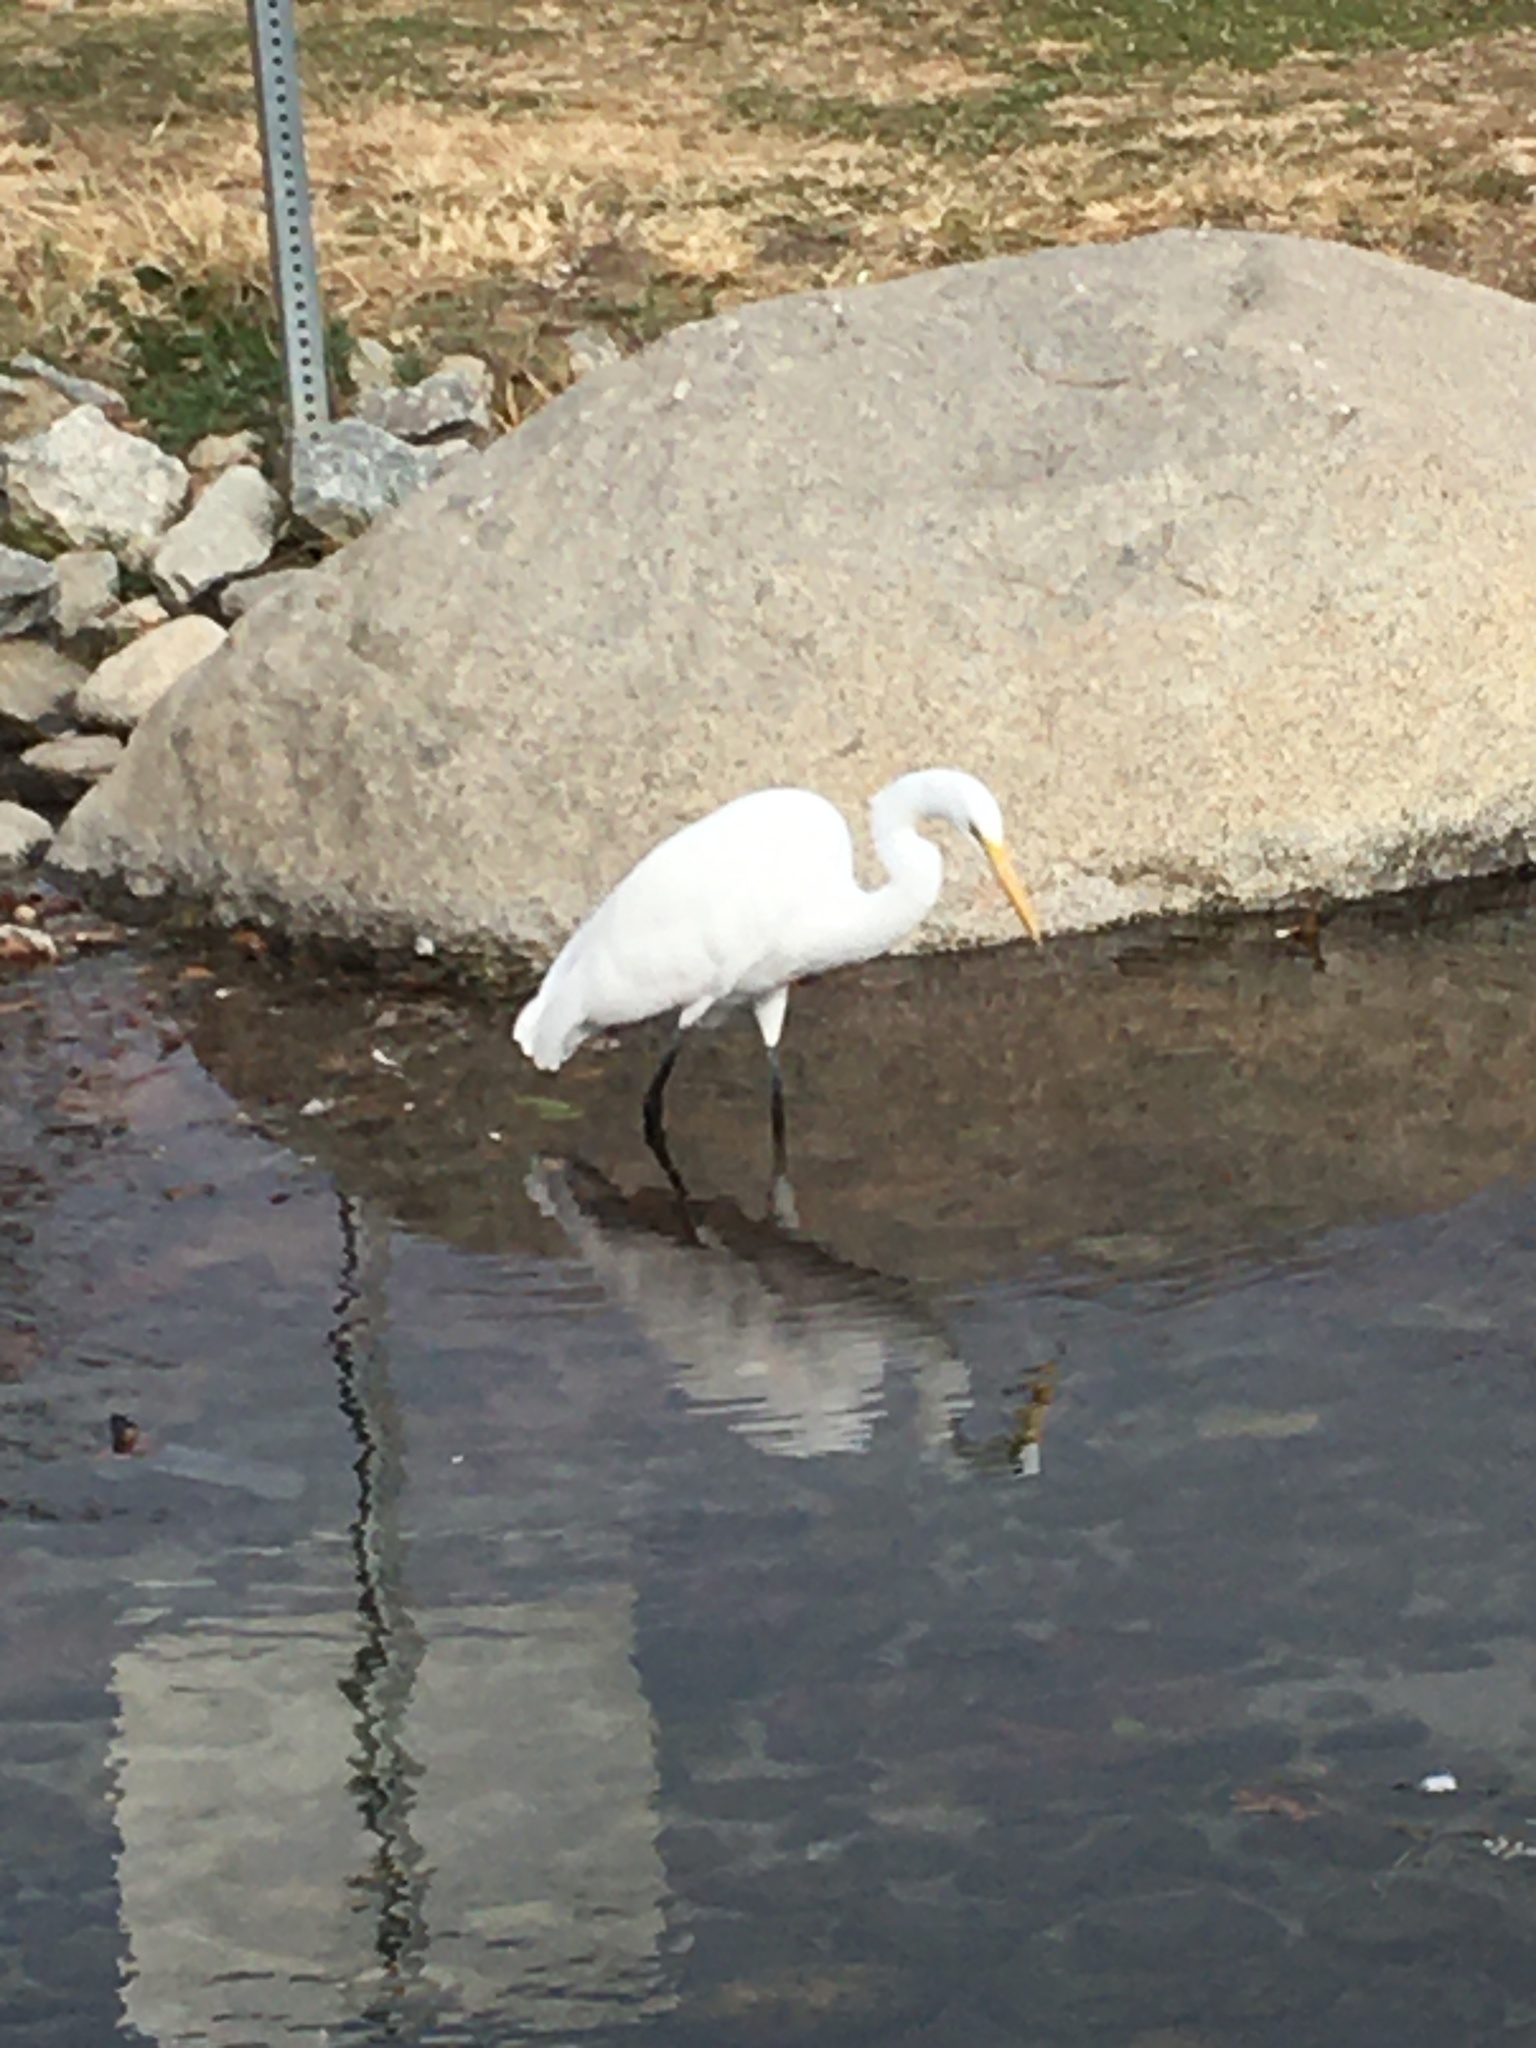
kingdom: Animalia
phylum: Chordata
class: Aves
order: Pelecaniformes
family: Ardeidae
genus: Ardea
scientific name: Ardea alba
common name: Great egret
